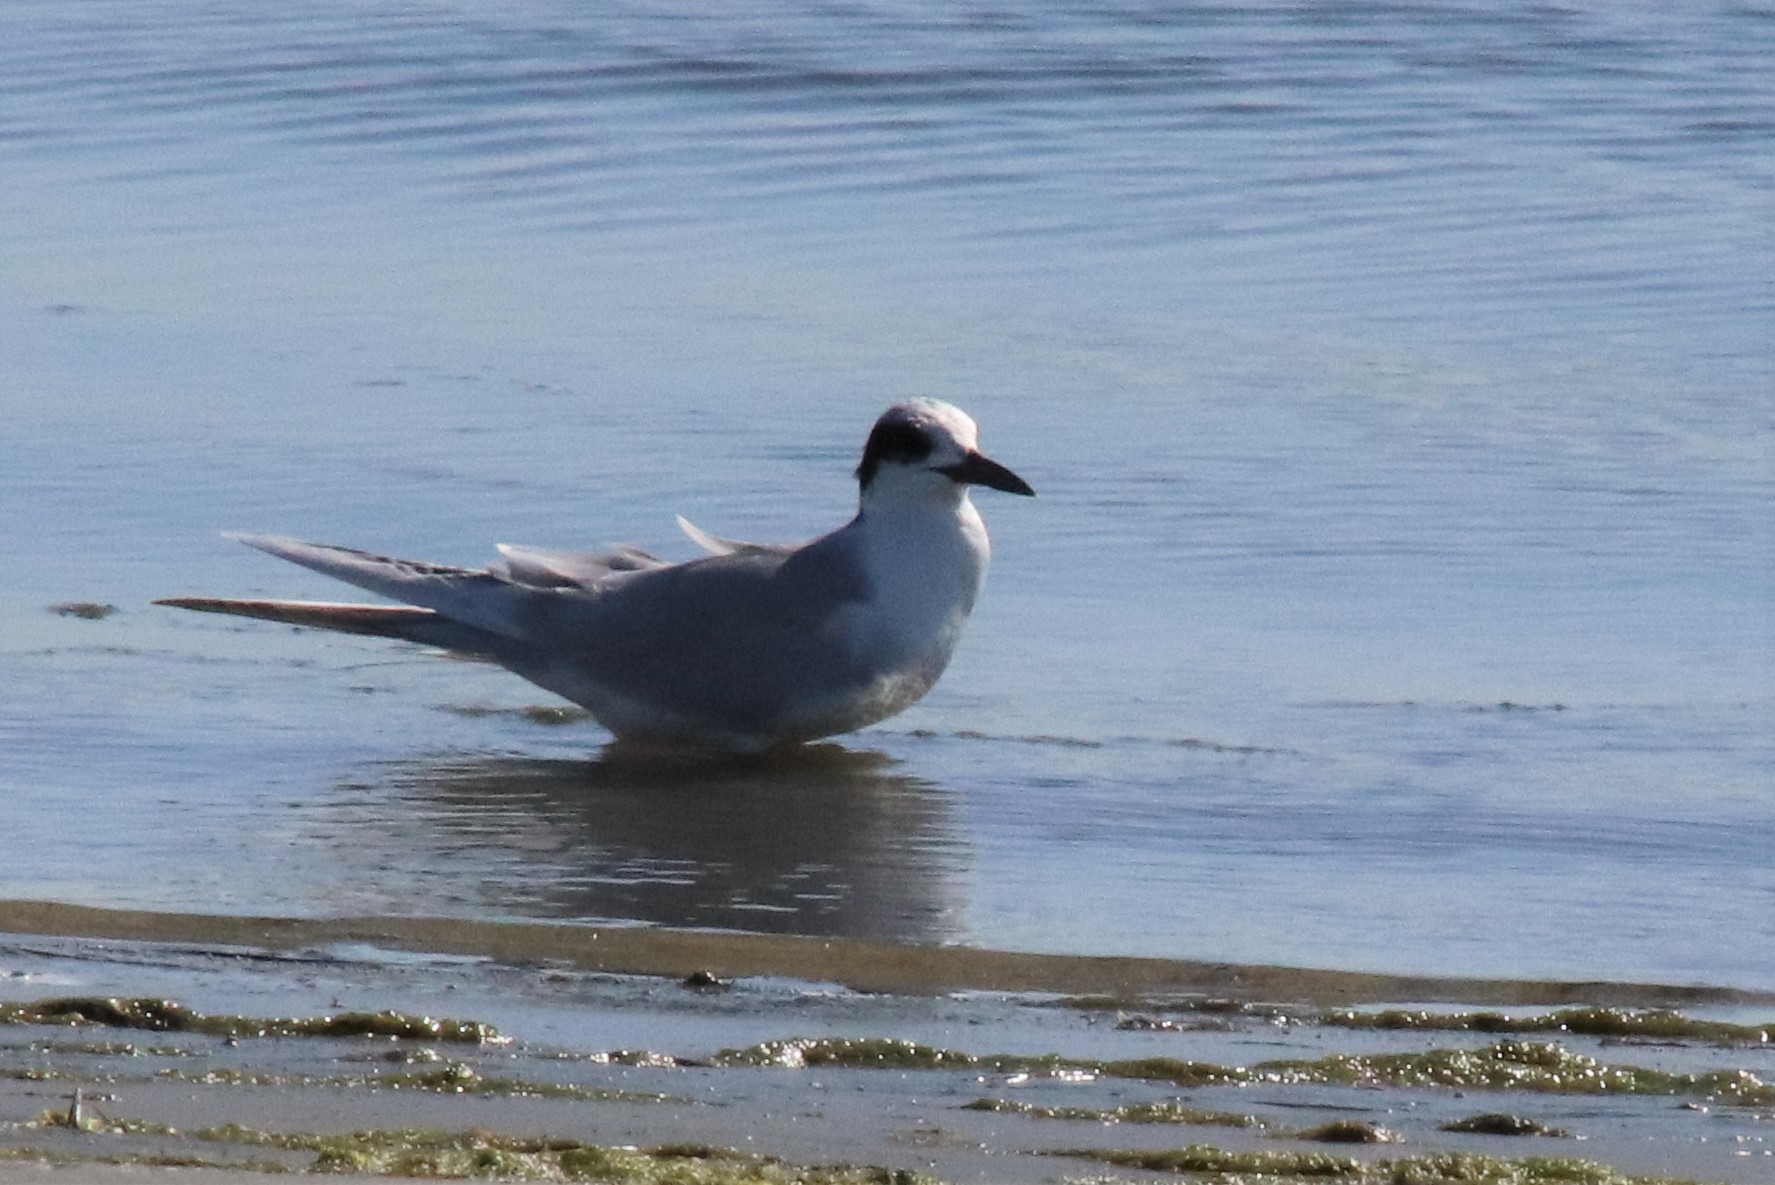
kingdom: Animalia
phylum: Chordata
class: Aves
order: Charadriiformes
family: Laridae
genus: Sterna
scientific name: Sterna forsteri
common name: Forster's tern
